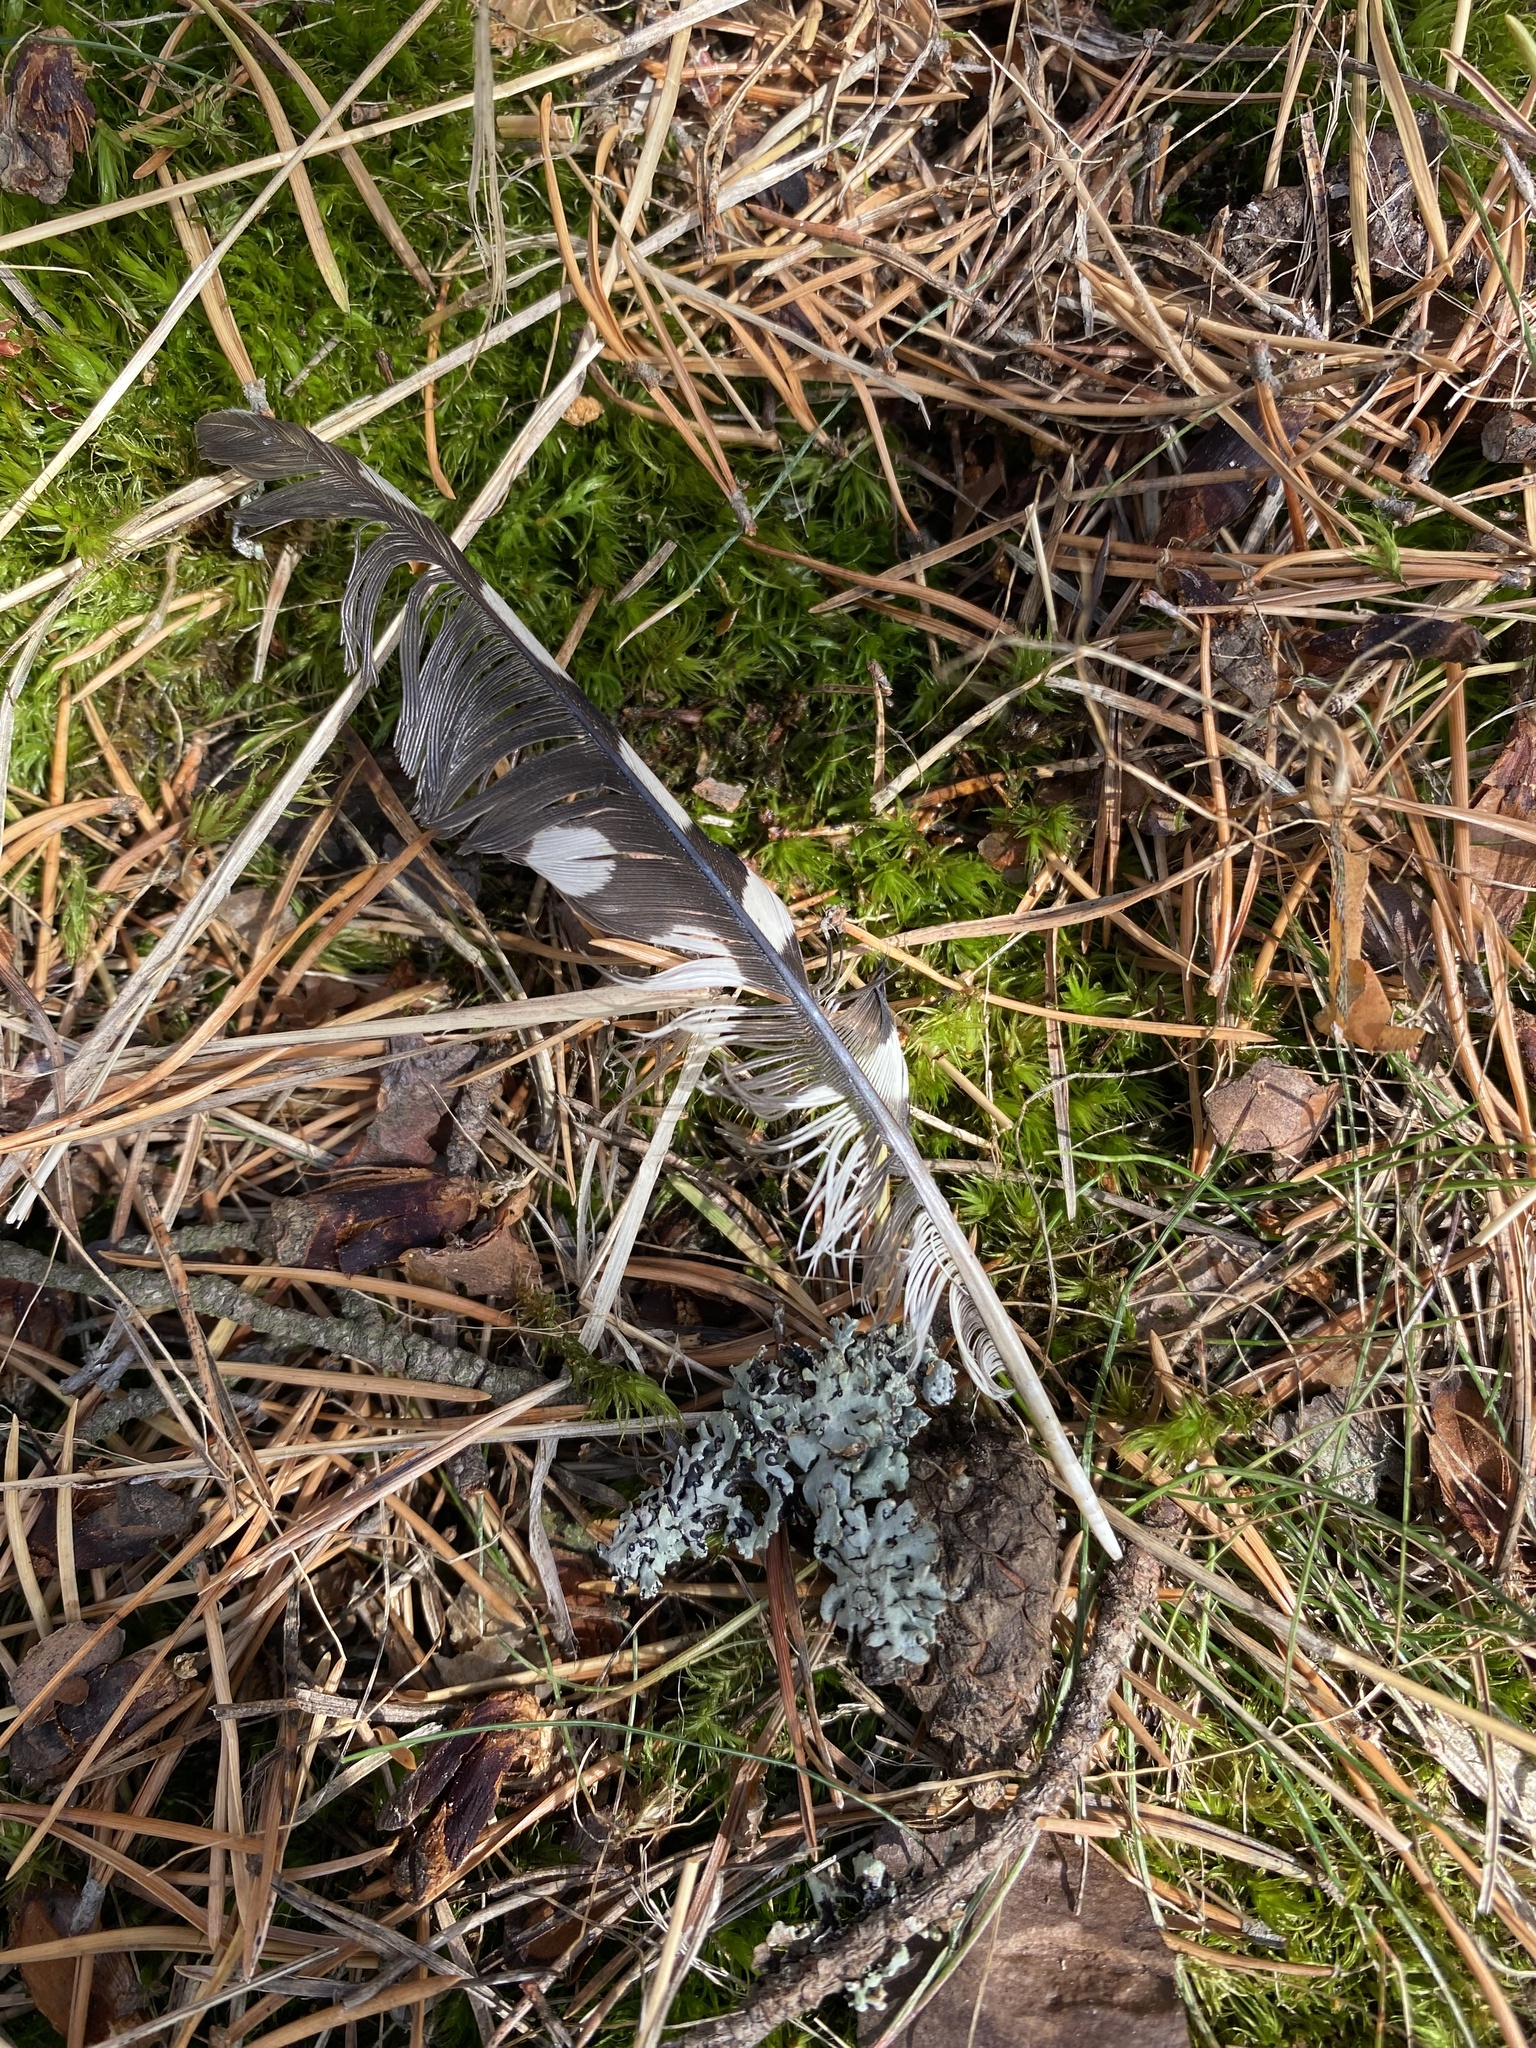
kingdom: Animalia
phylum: Chordata
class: Aves
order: Piciformes
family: Picidae
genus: Dendrocopos
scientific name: Dendrocopos major
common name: Great spotted woodpecker
